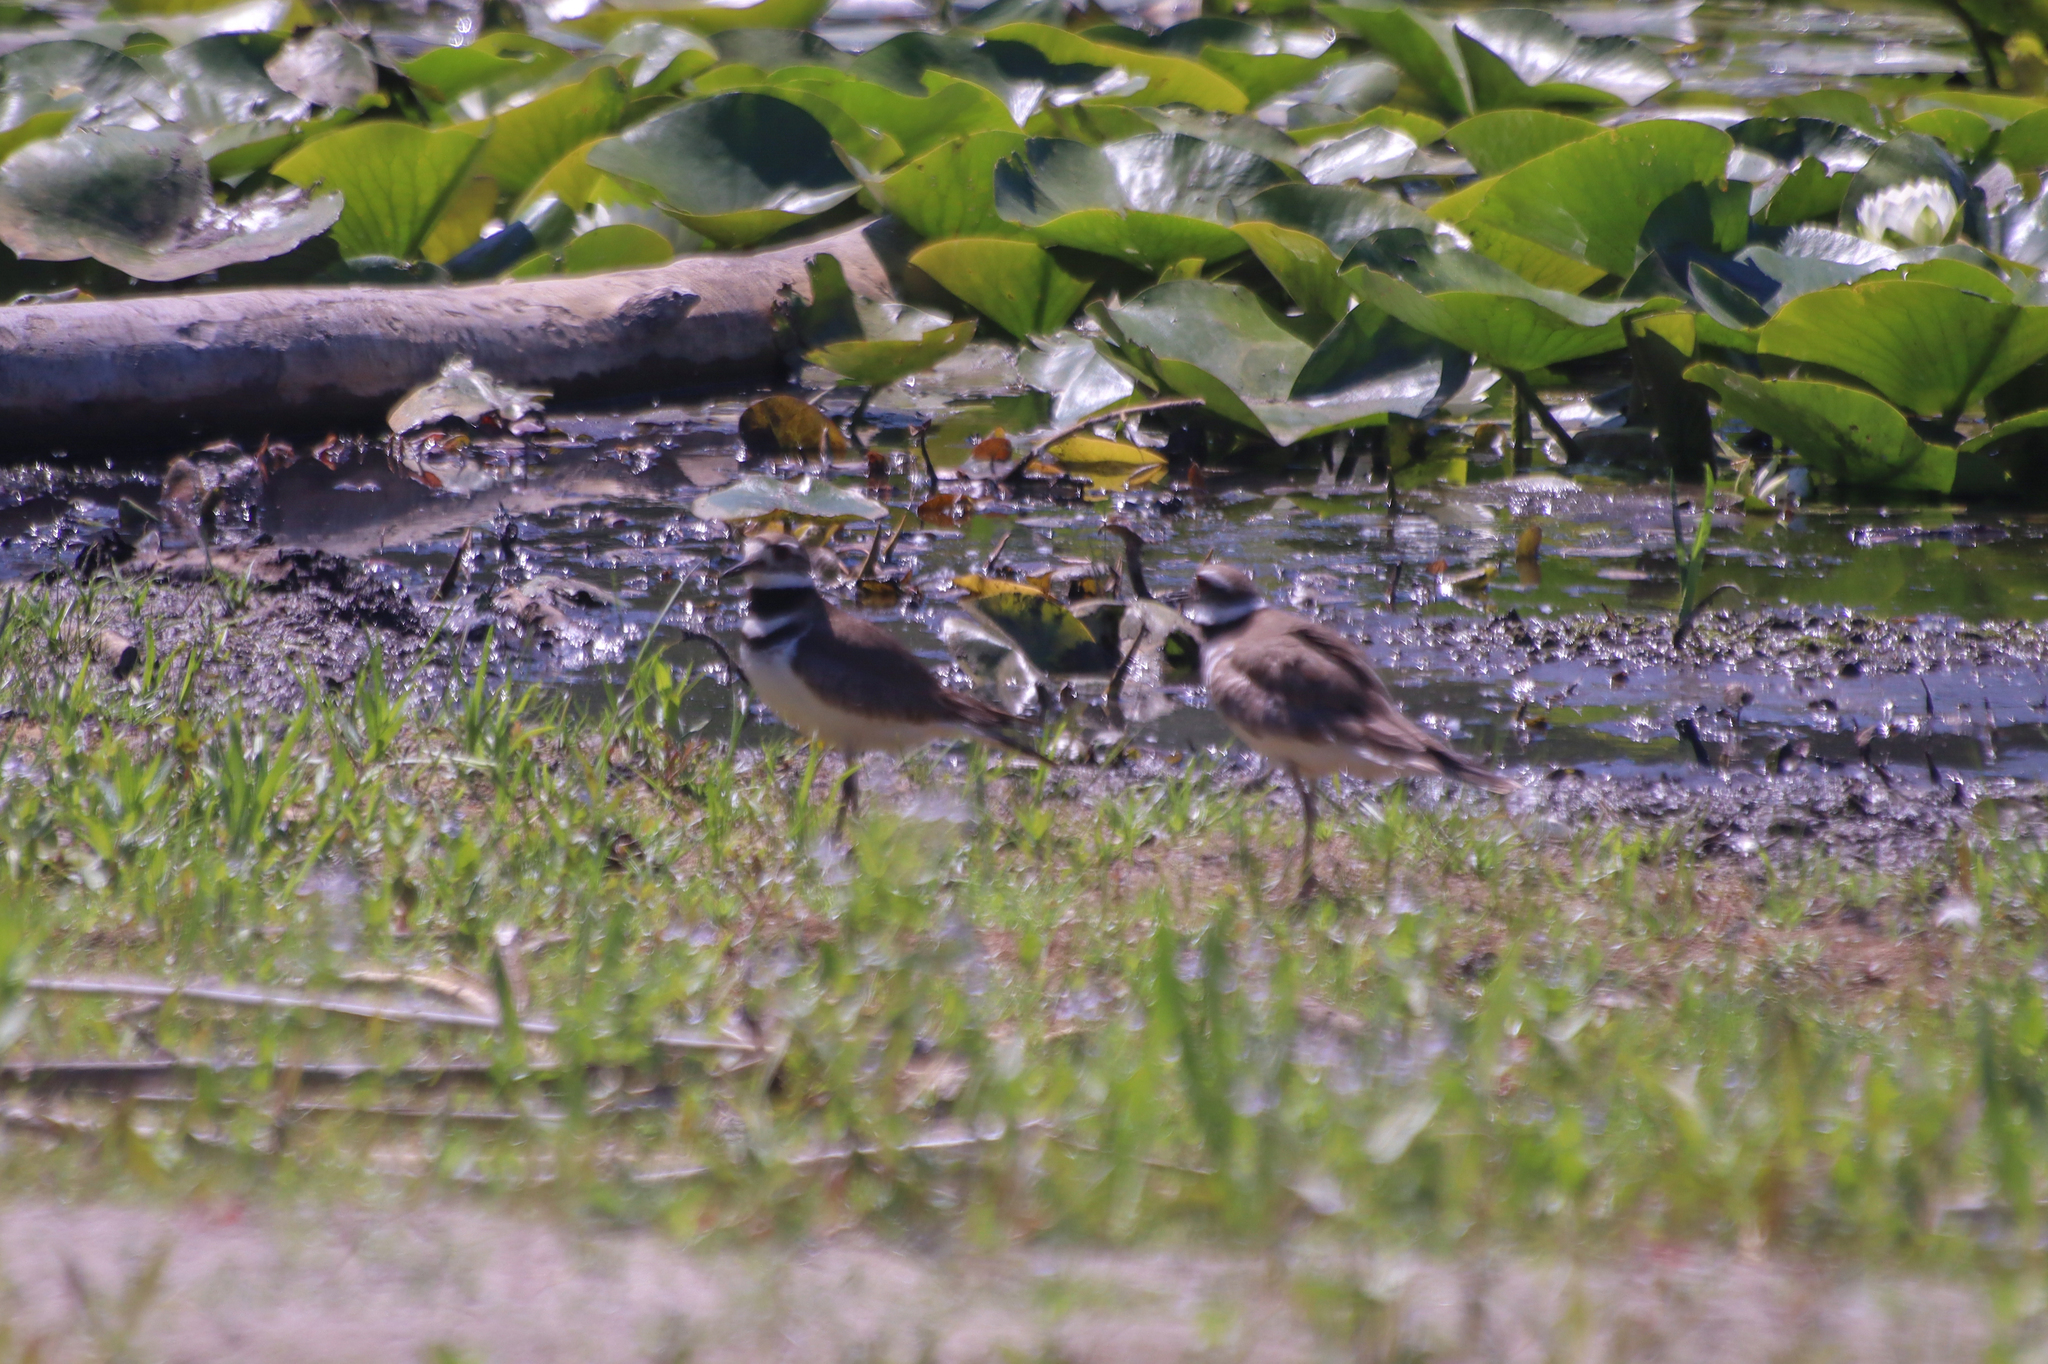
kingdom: Animalia
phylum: Chordata
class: Aves
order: Charadriiformes
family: Charadriidae
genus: Charadrius
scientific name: Charadrius vociferus
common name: Killdeer
